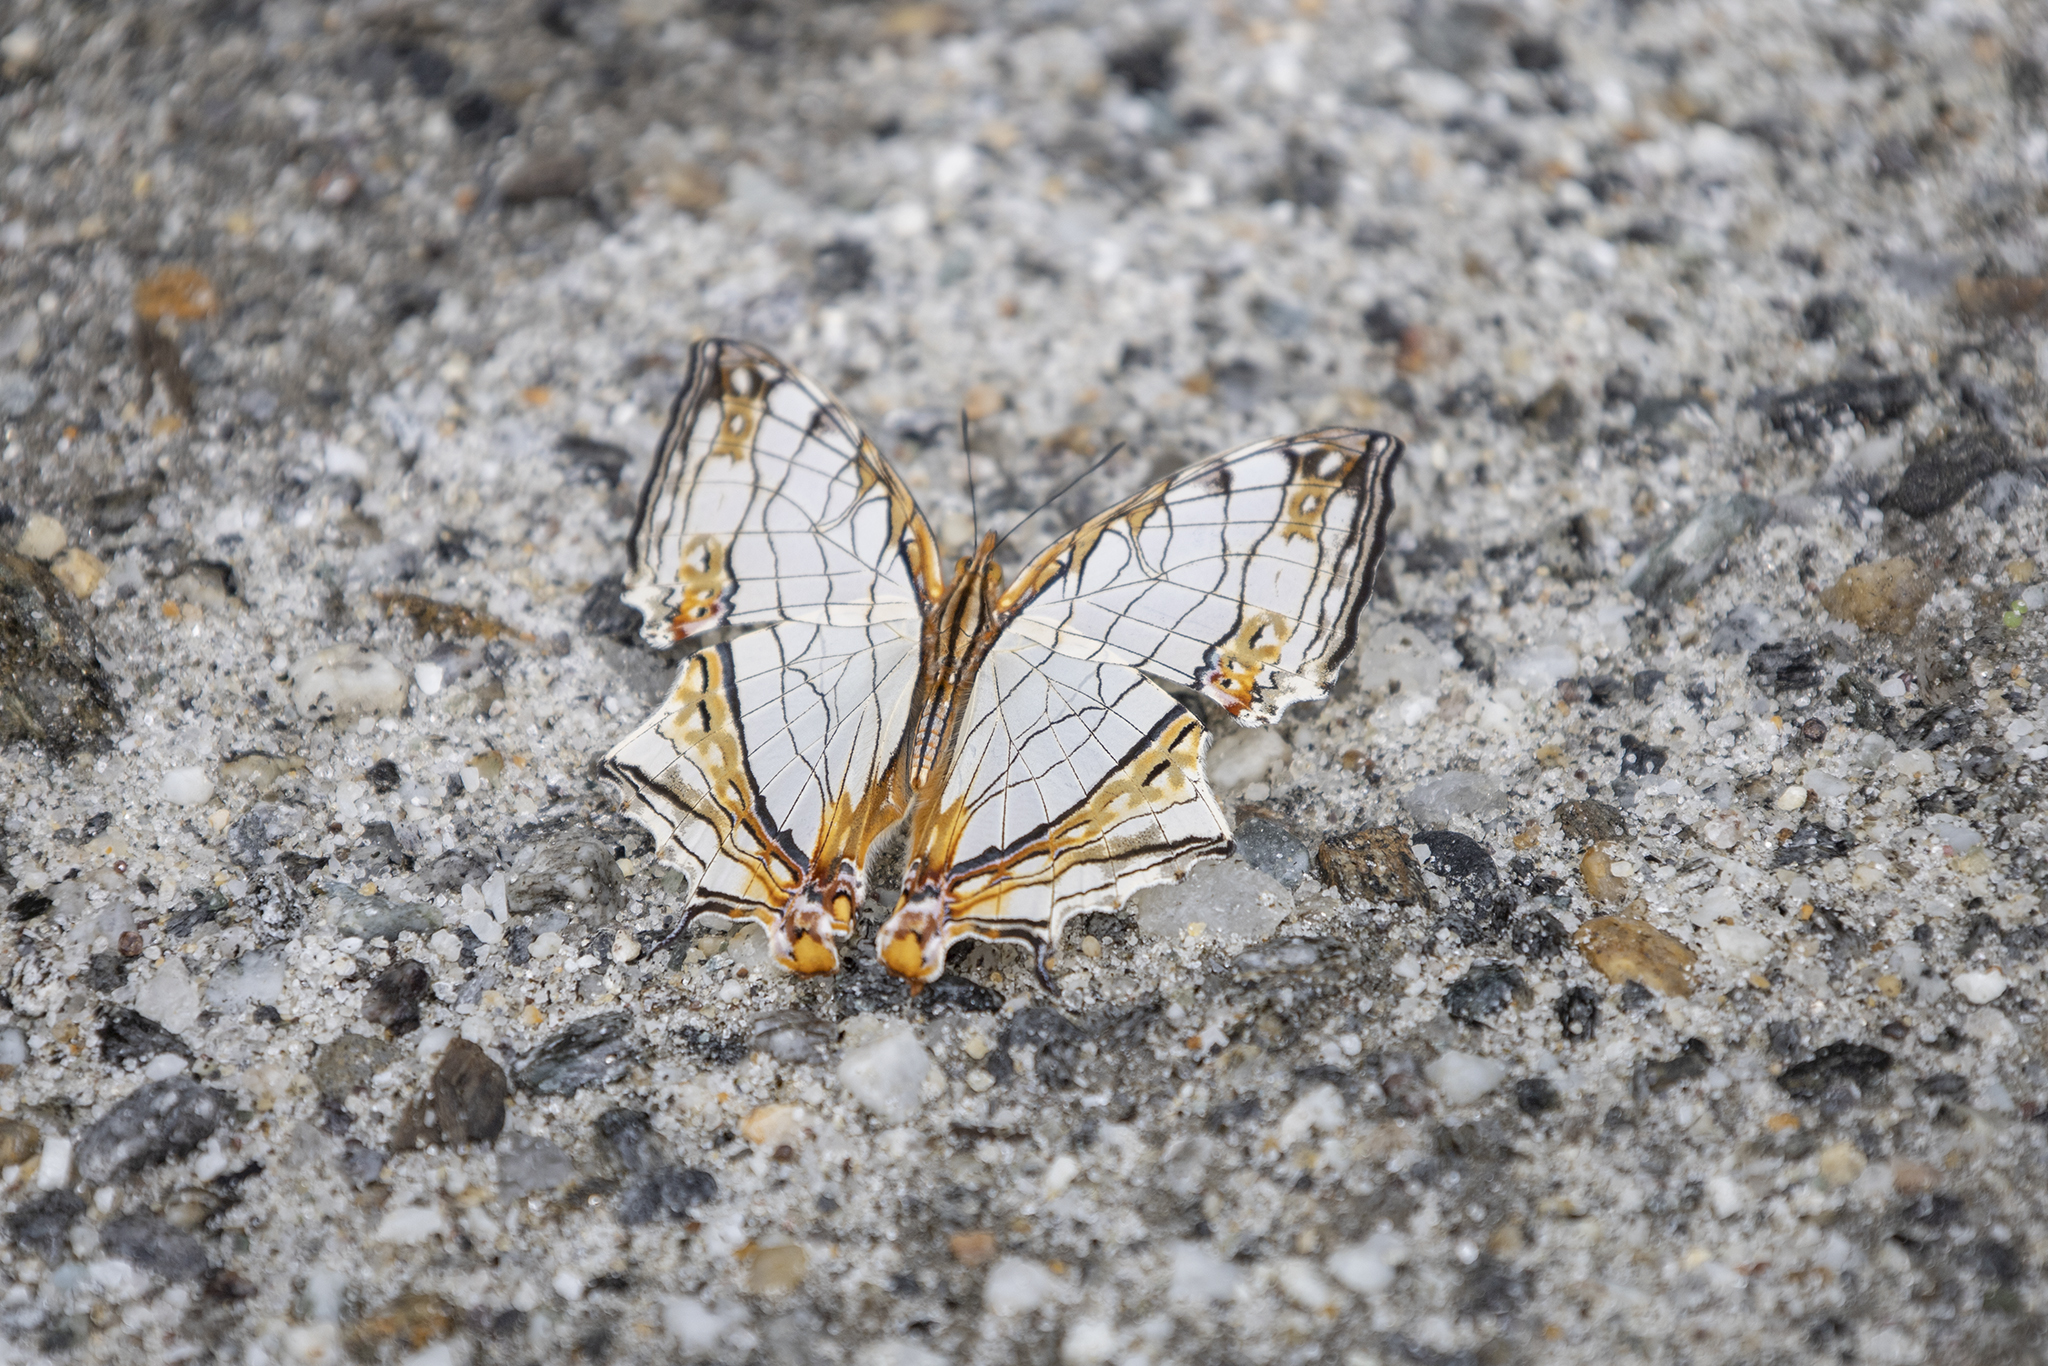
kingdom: Animalia
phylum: Arthropoda
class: Insecta
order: Lepidoptera
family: Nymphalidae
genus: Cyrestis
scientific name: Cyrestis thyodamas
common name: Common mapwing
